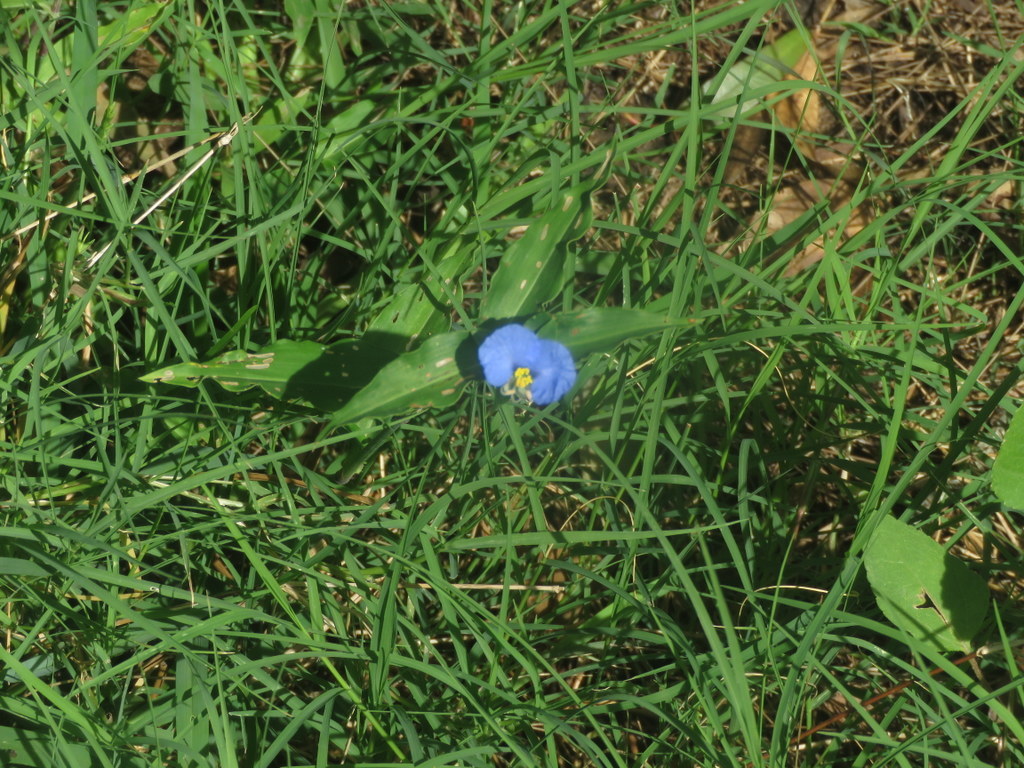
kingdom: Plantae
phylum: Tracheophyta
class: Liliopsida
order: Commelinales
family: Commelinaceae
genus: Commelina
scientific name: Commelina erecta
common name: Blousel blommetjie
